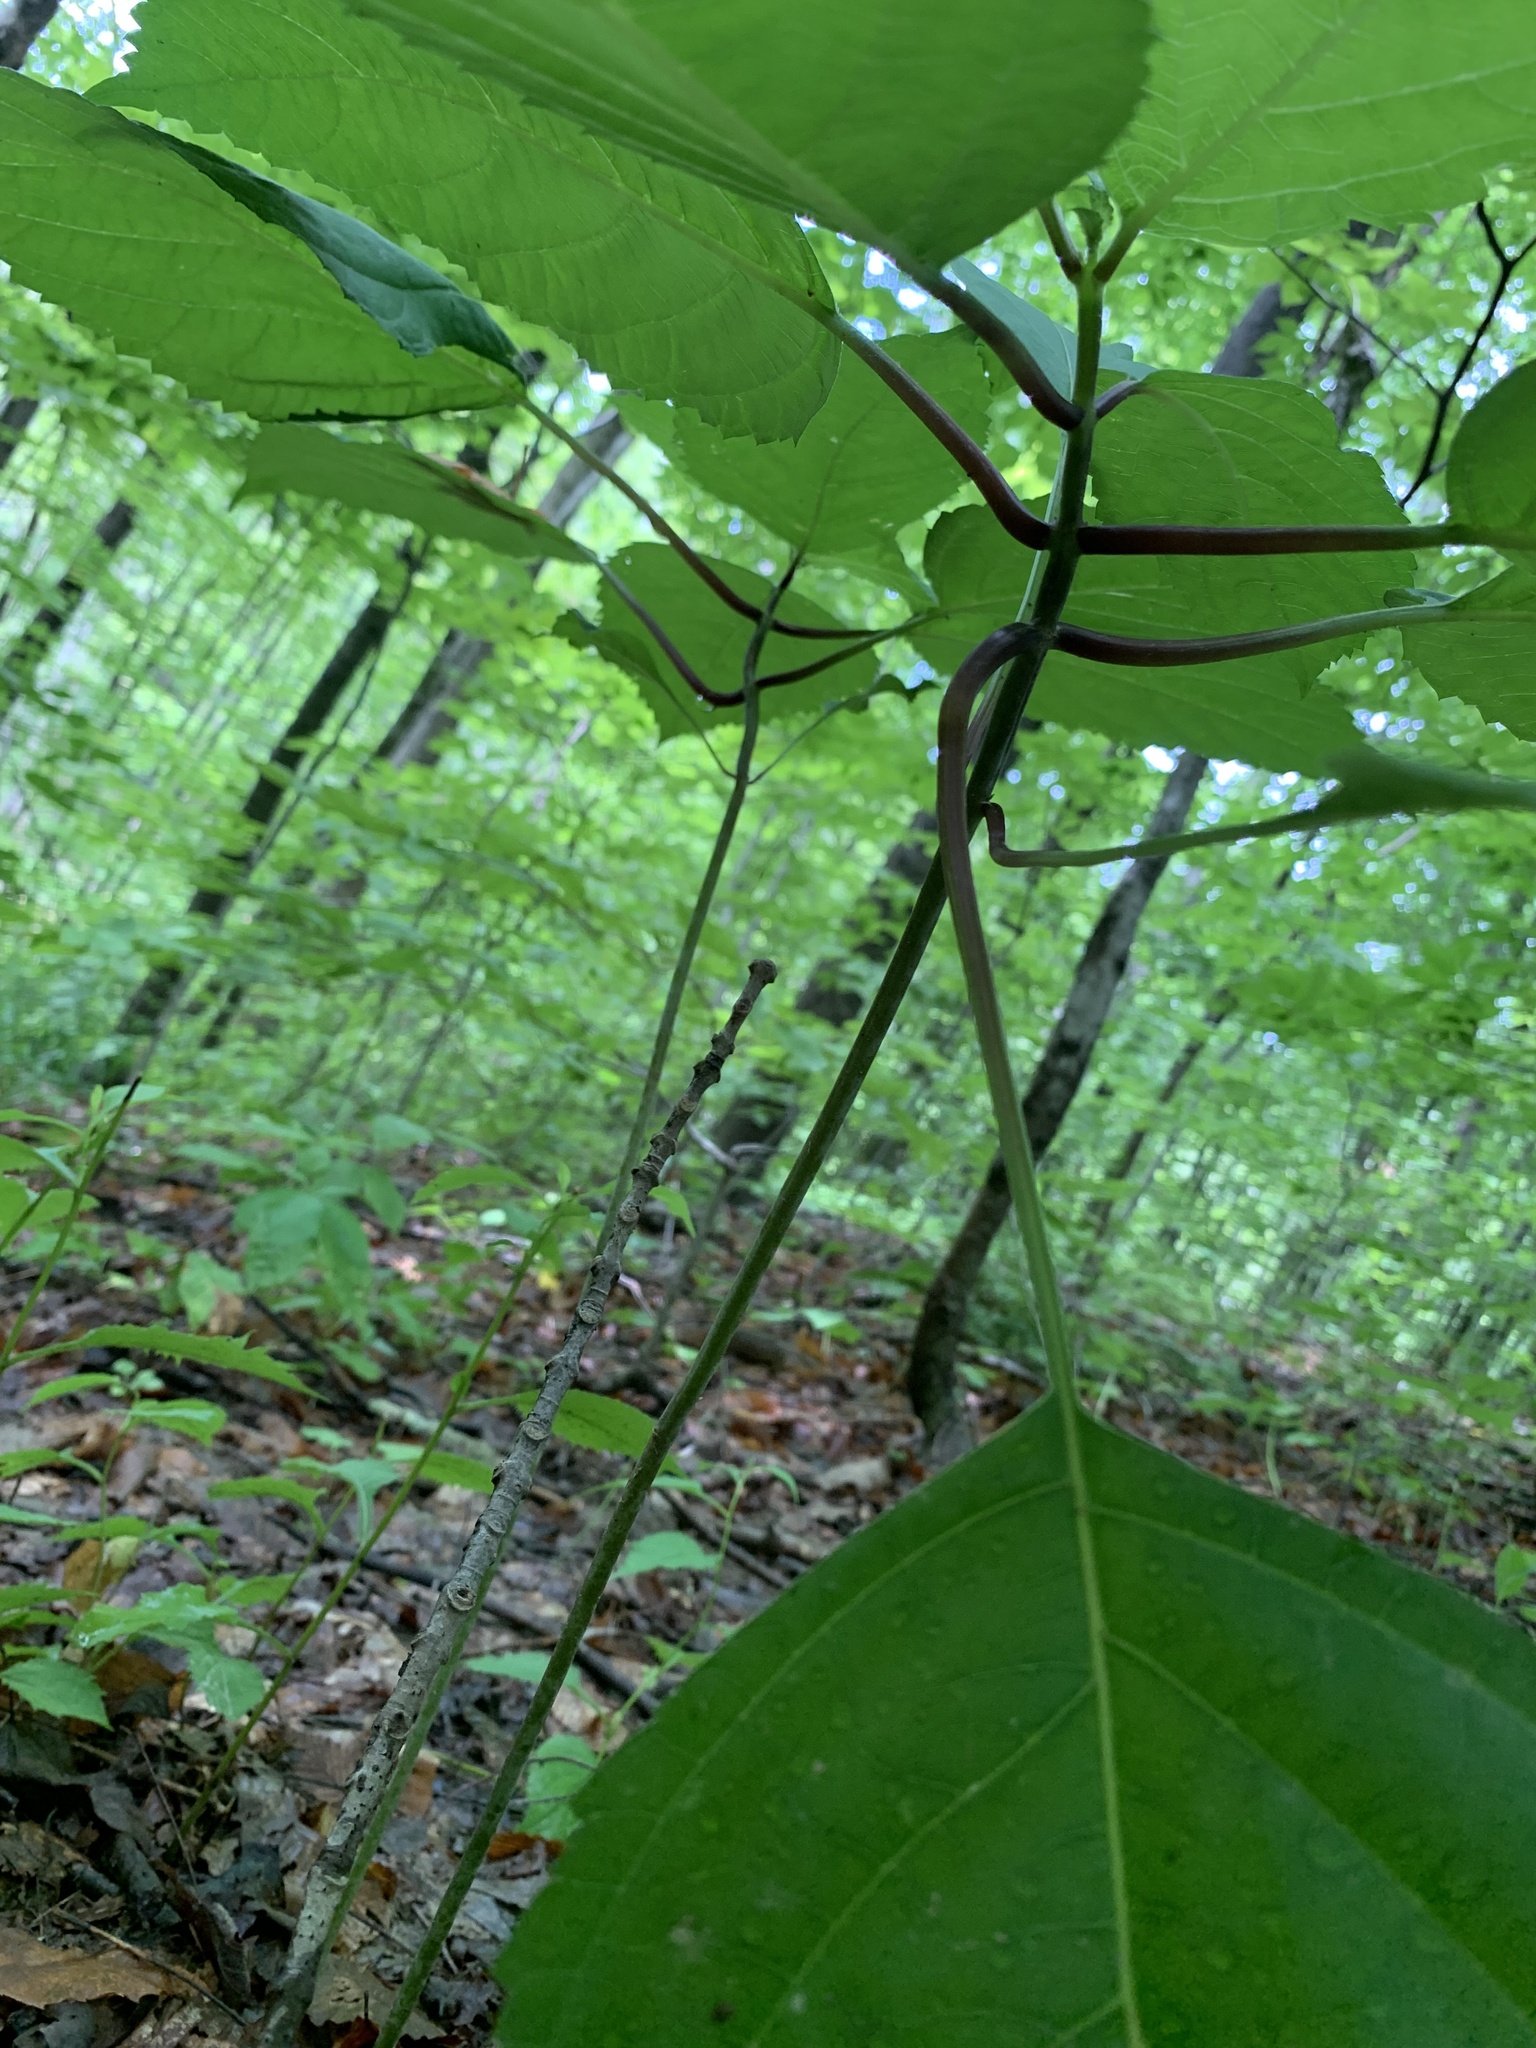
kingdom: Plantae
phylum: Tracheophyta
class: Magnoliopsida
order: Lamiales
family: Lamiaceae
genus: Collinsonia
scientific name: Collinsonia canadensis
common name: Northern horsebalm
